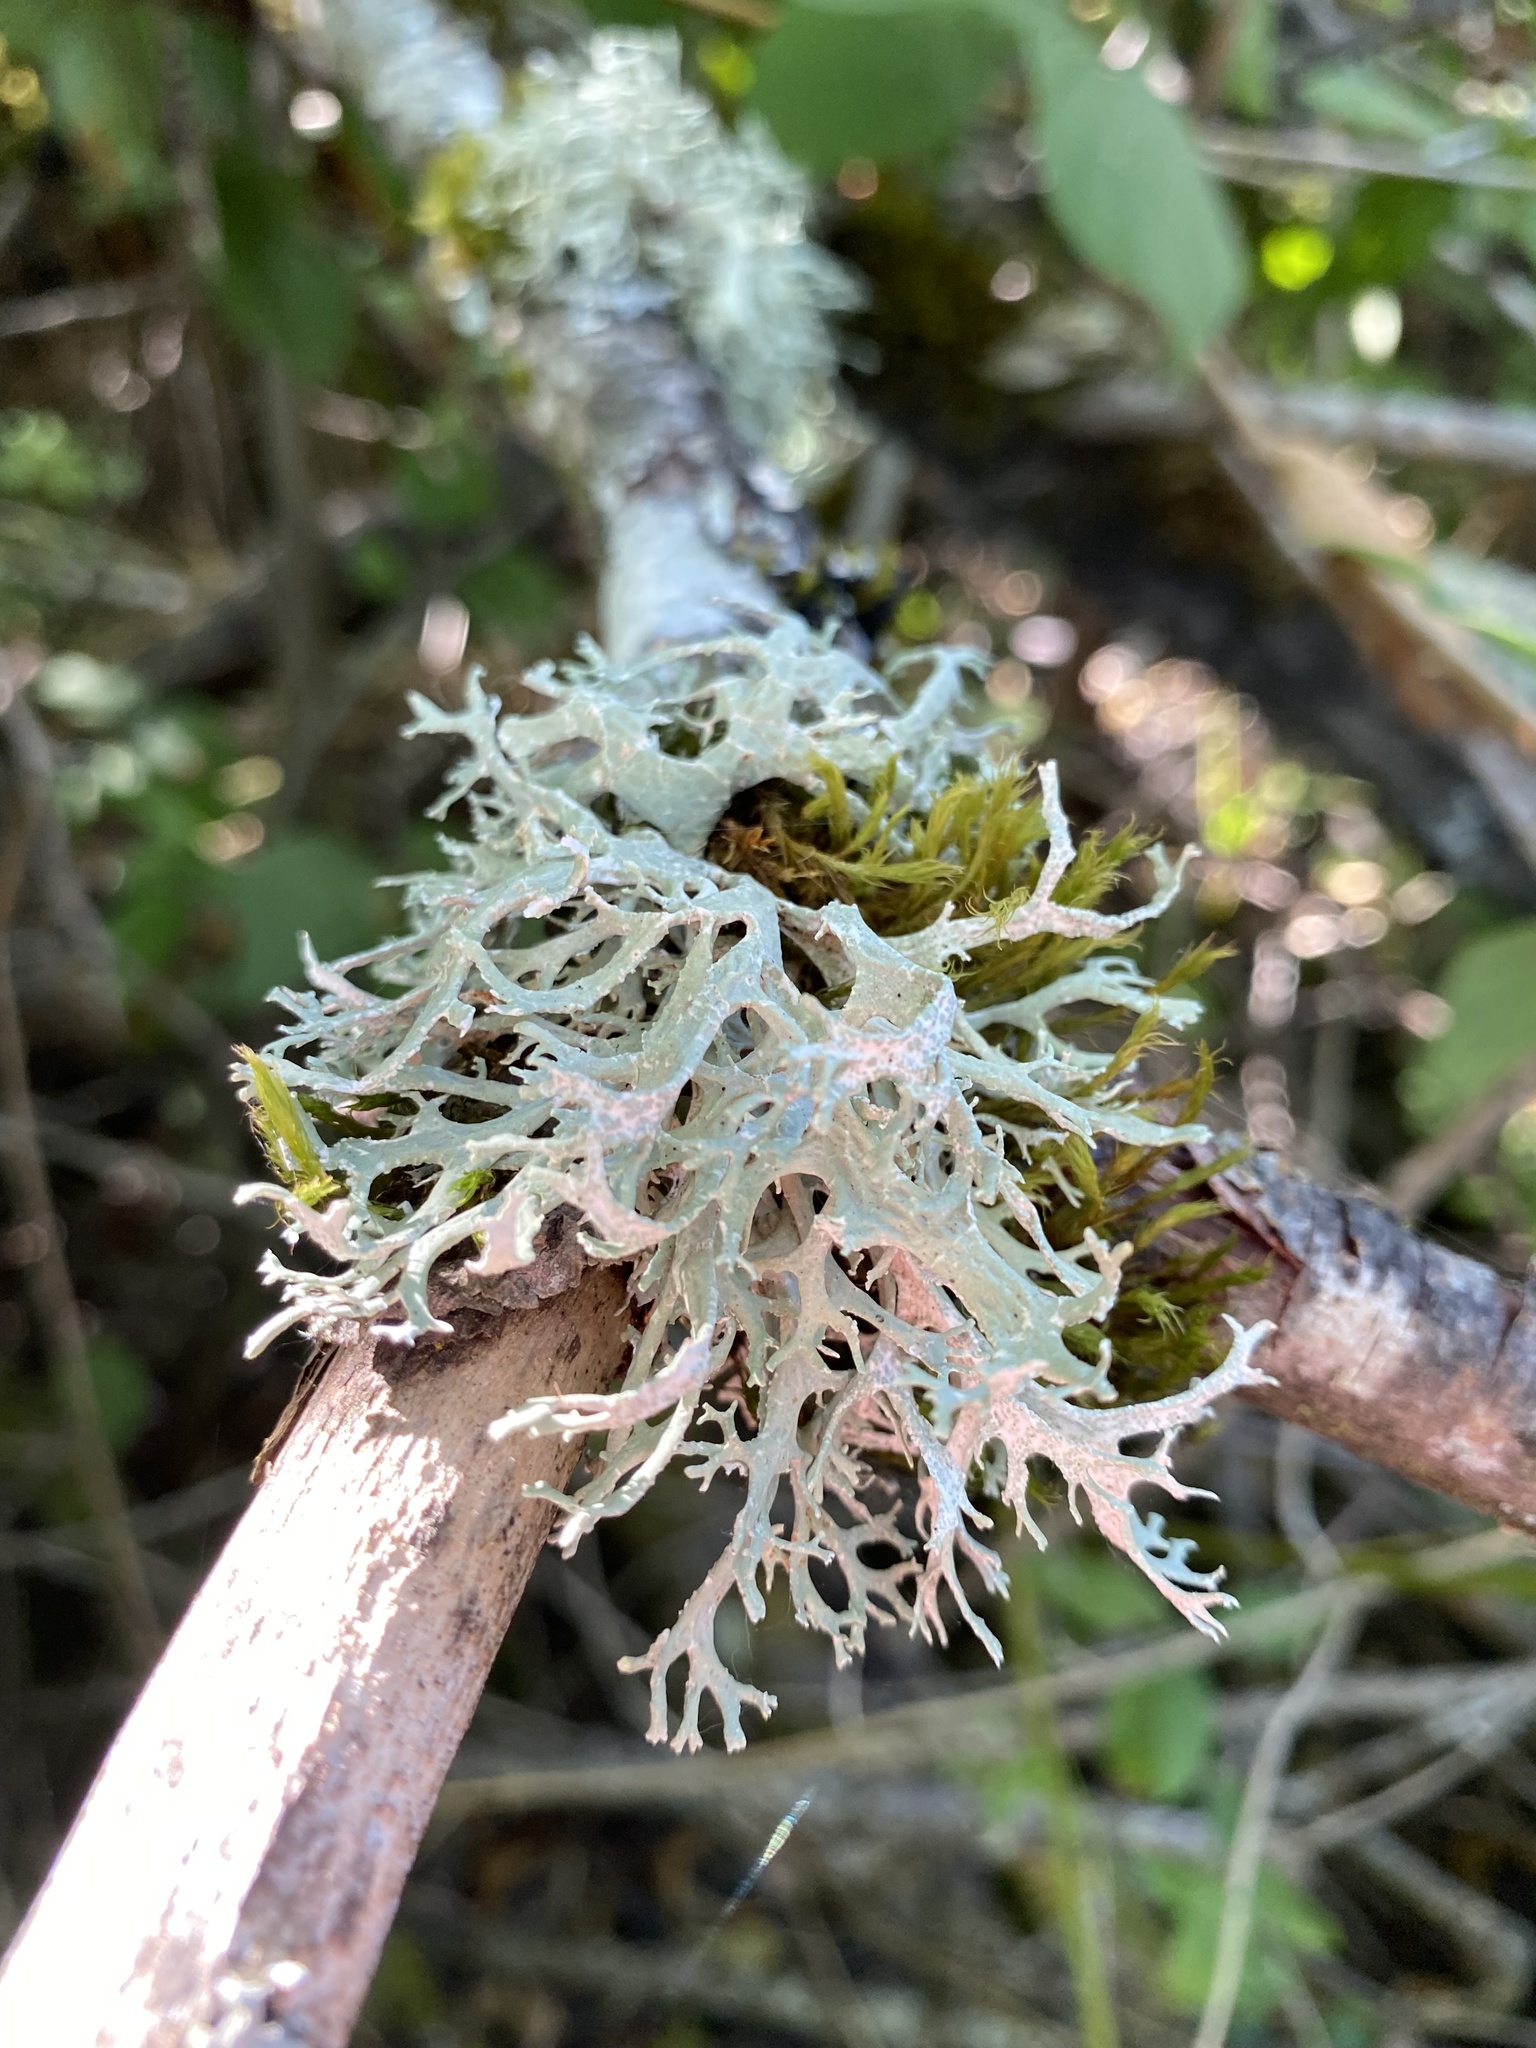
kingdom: Fungi
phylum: Ascomycota
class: Lecanoromycetes
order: Lecanorales
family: Parmeliaceae
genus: Evernia
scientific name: Evernia prunastri
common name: Oak moss
